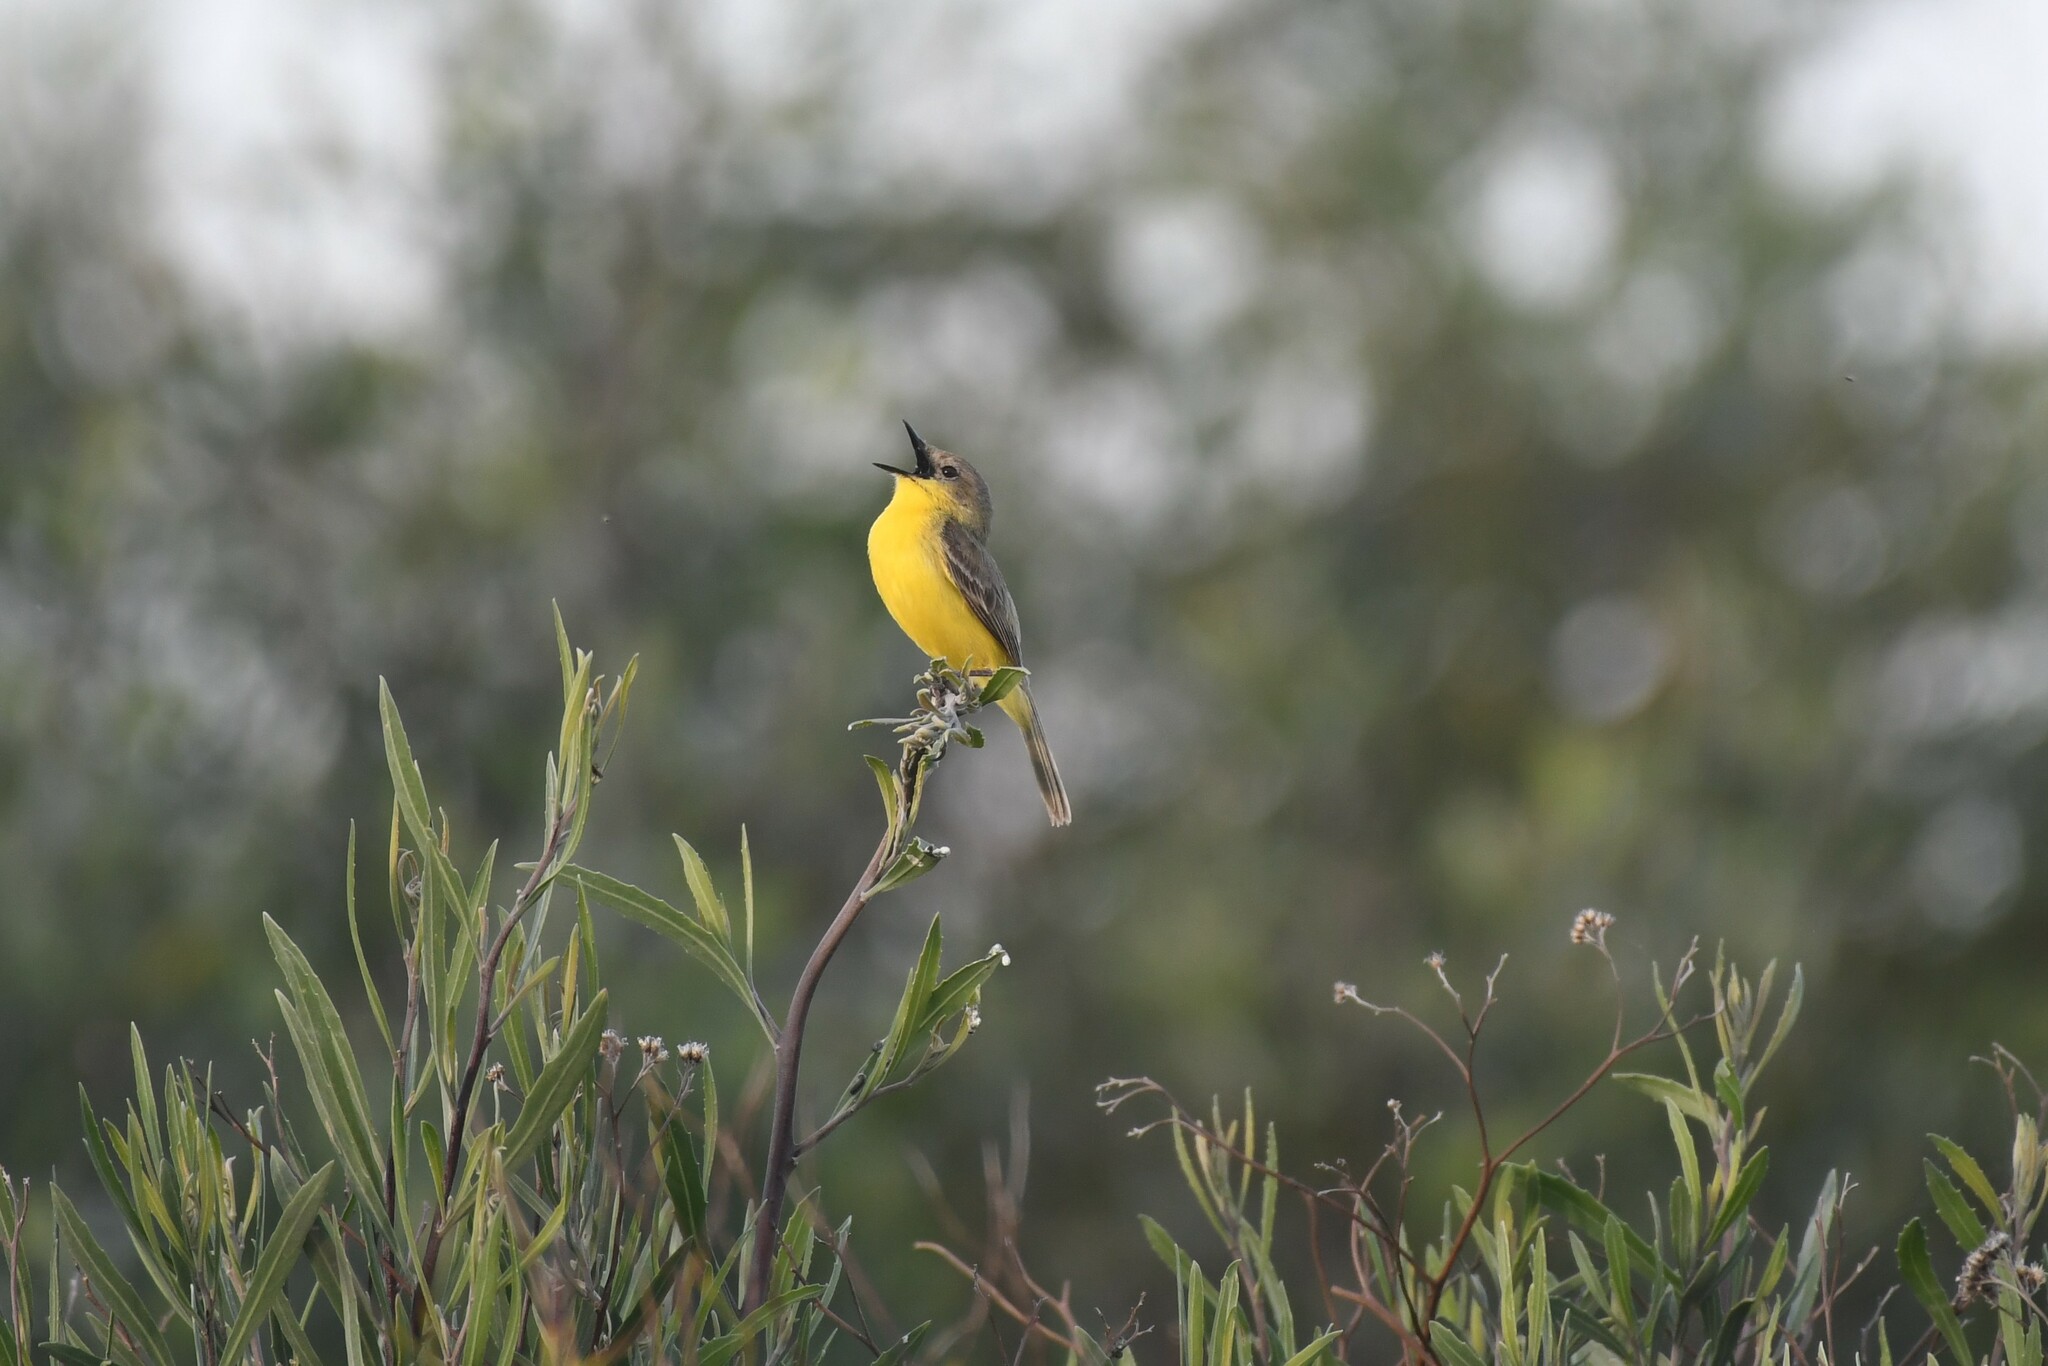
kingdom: Animalia
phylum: Chordata
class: Aves
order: Passeriformes
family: Tyrannidae
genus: Pseudocolopteryx
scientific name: Pseudocolopteryx dinelliana
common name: Dinelli's doradito
